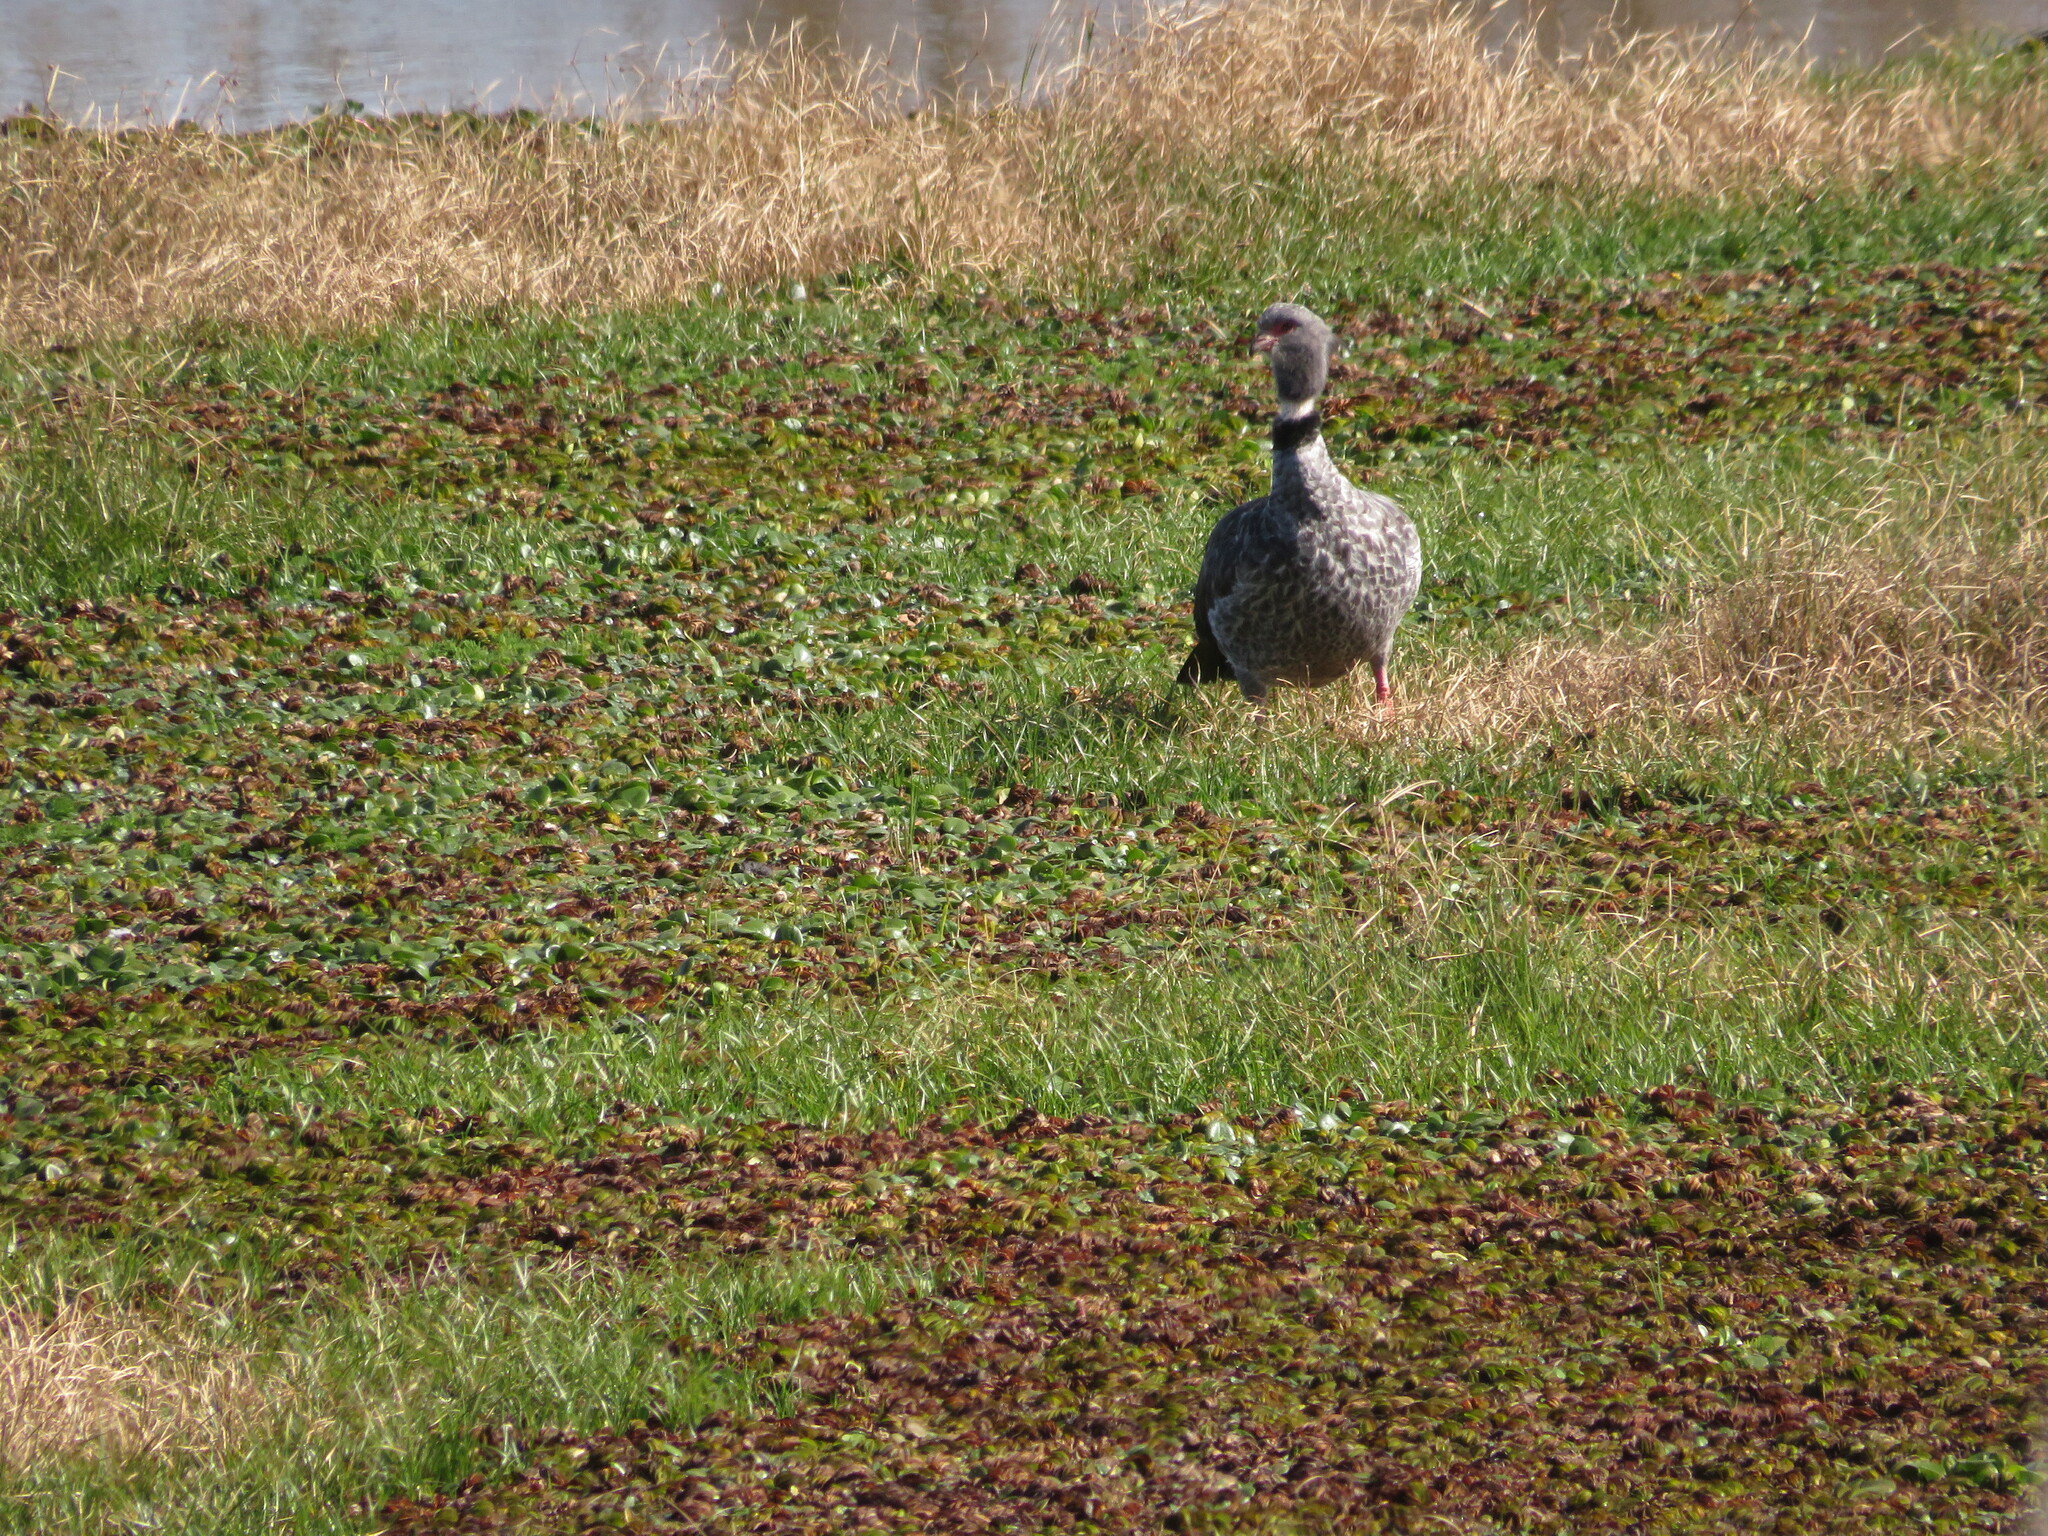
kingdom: Animalia
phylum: Chordata
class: Aves
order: Anseriformes
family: Anhimidae
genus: Chauna
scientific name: Chauna torquata
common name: Southern screamer
